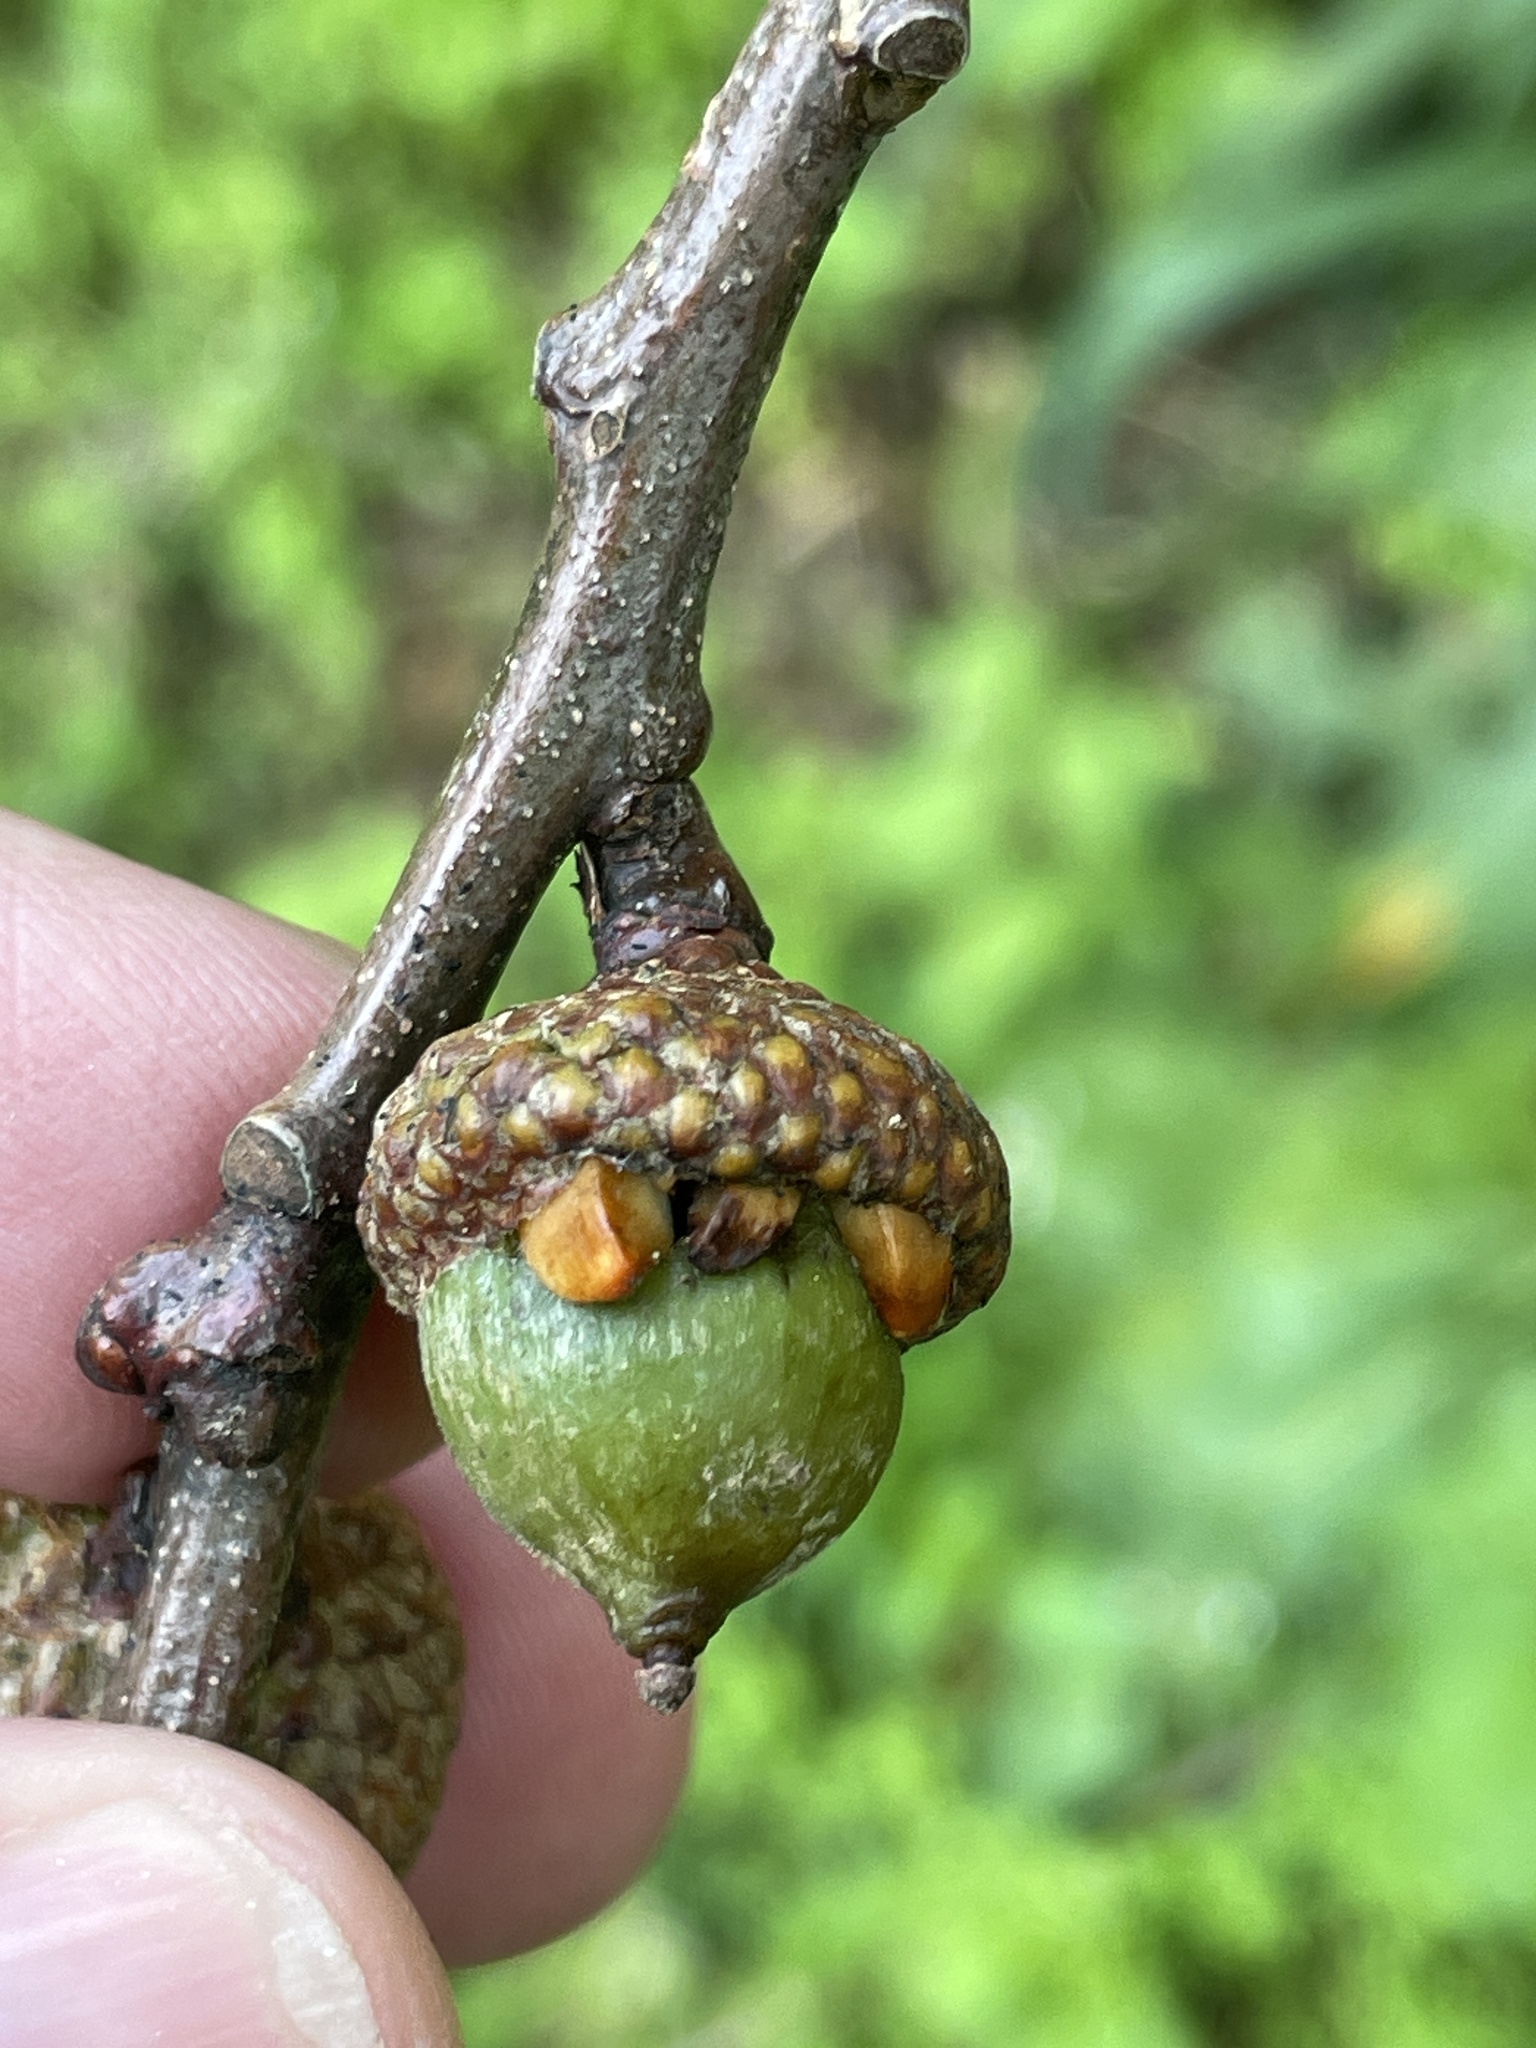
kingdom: Animalia
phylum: Arthropoda
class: Insecta
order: Hymenoptera
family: Cynipidae
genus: Callirhytis
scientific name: Callirhytis
